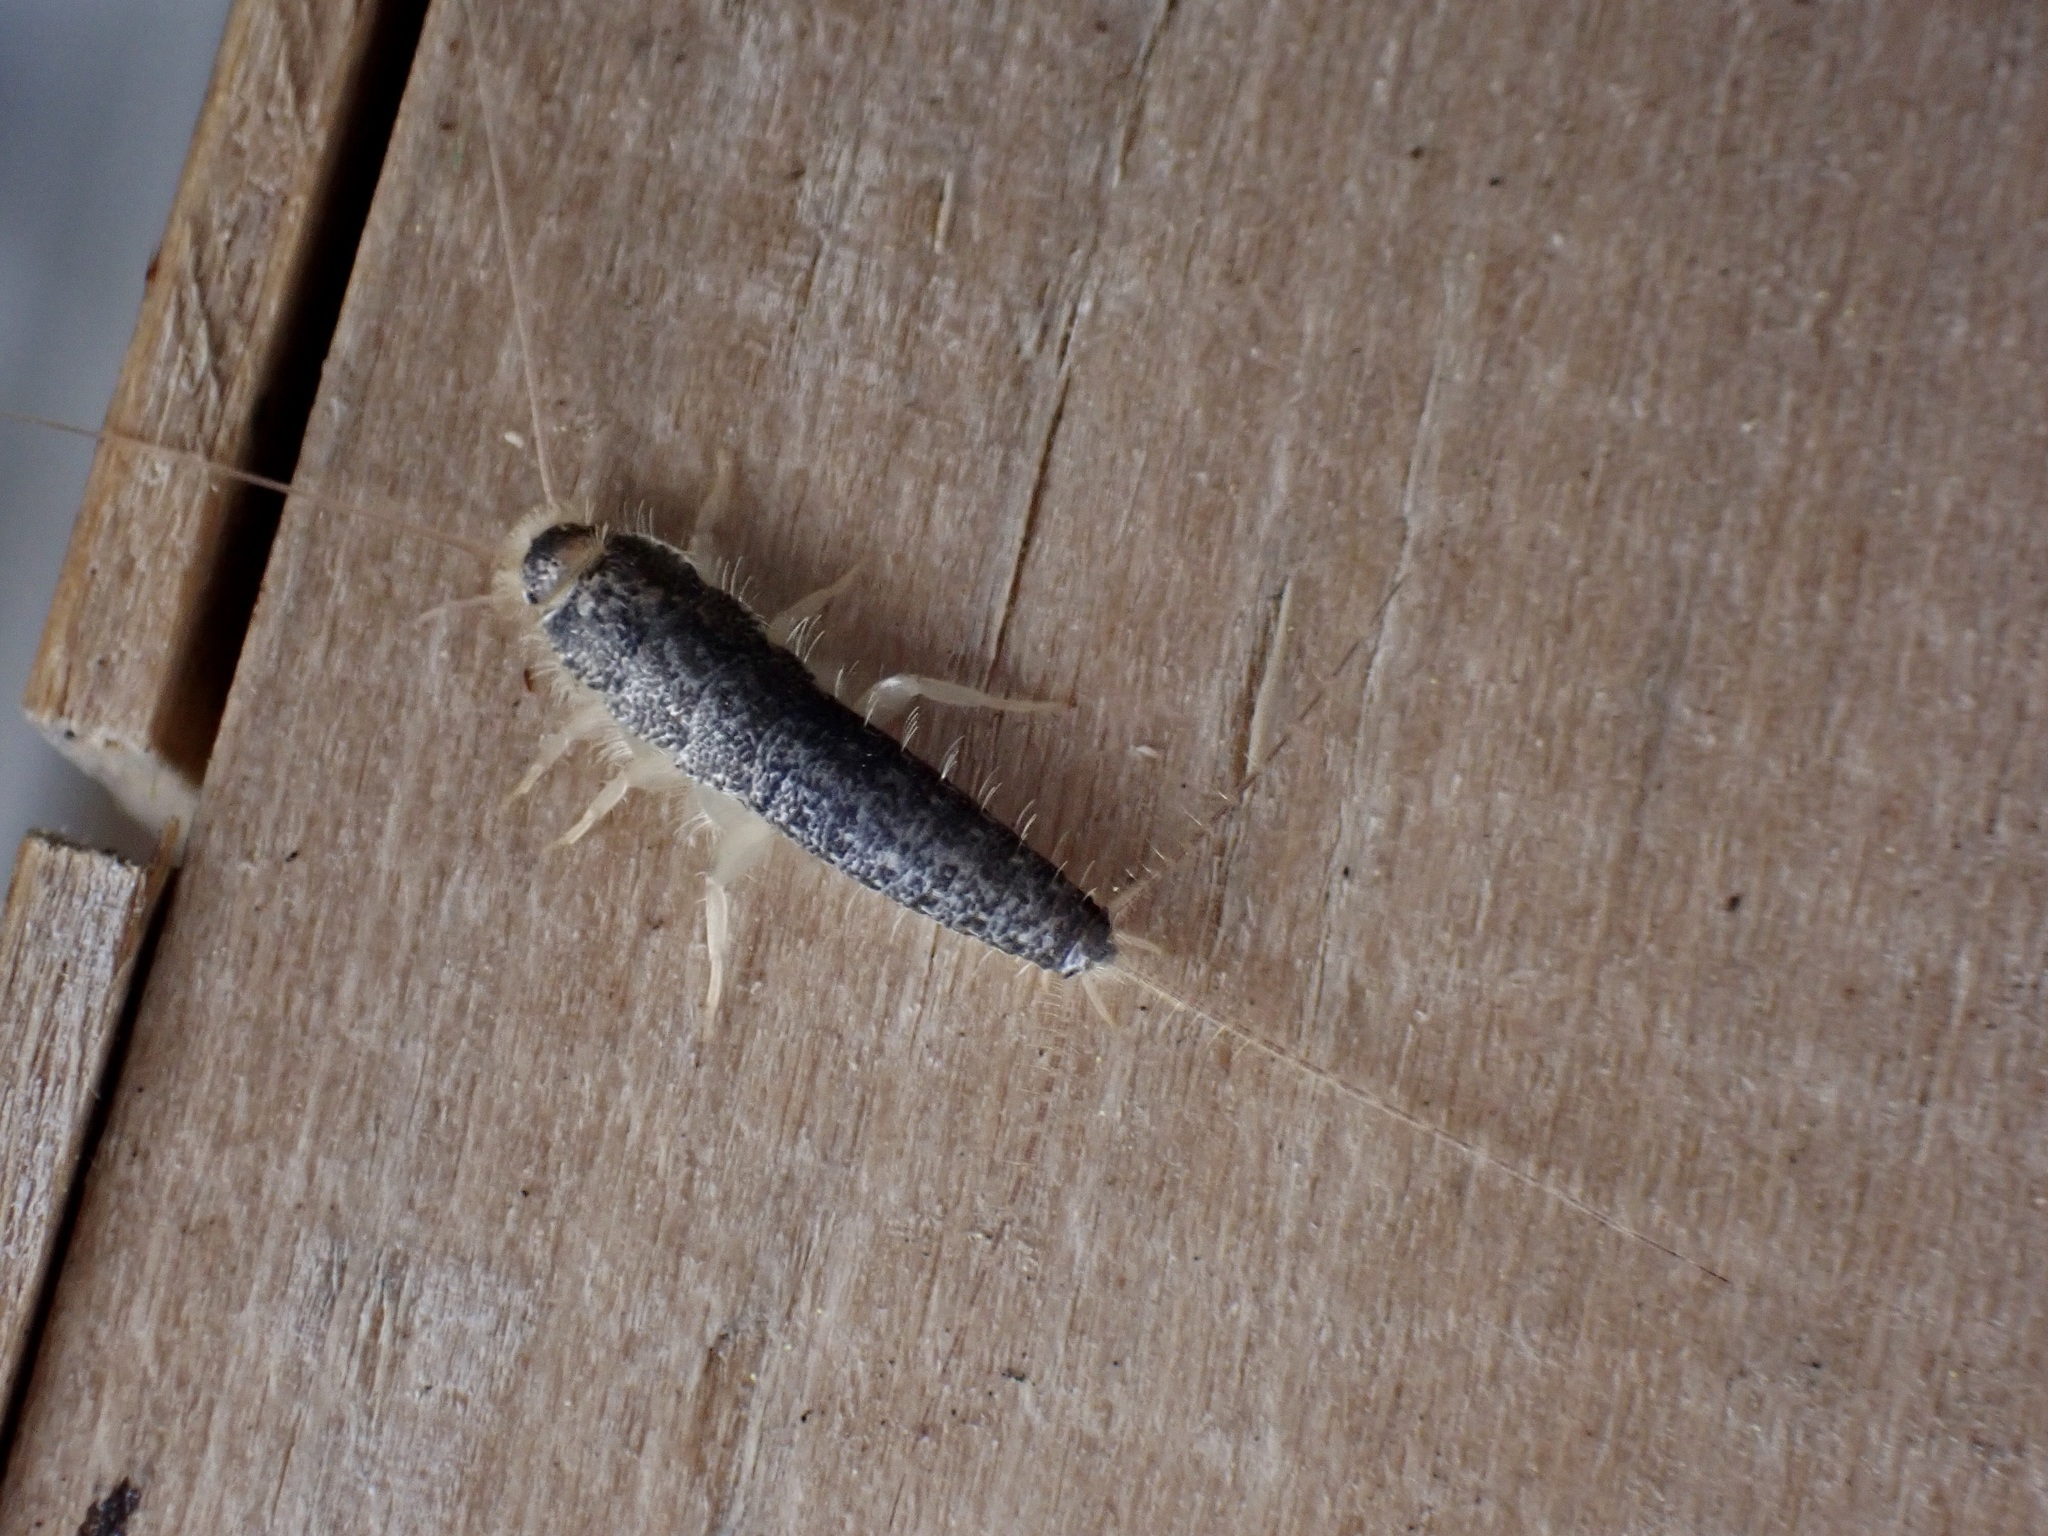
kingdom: Animalia
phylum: Arthropoda
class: Insecta
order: Zygentoma
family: Lepismatidae
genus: Ctenolepisma
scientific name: Ctenolepisma longicaudatum
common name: Silverfish
